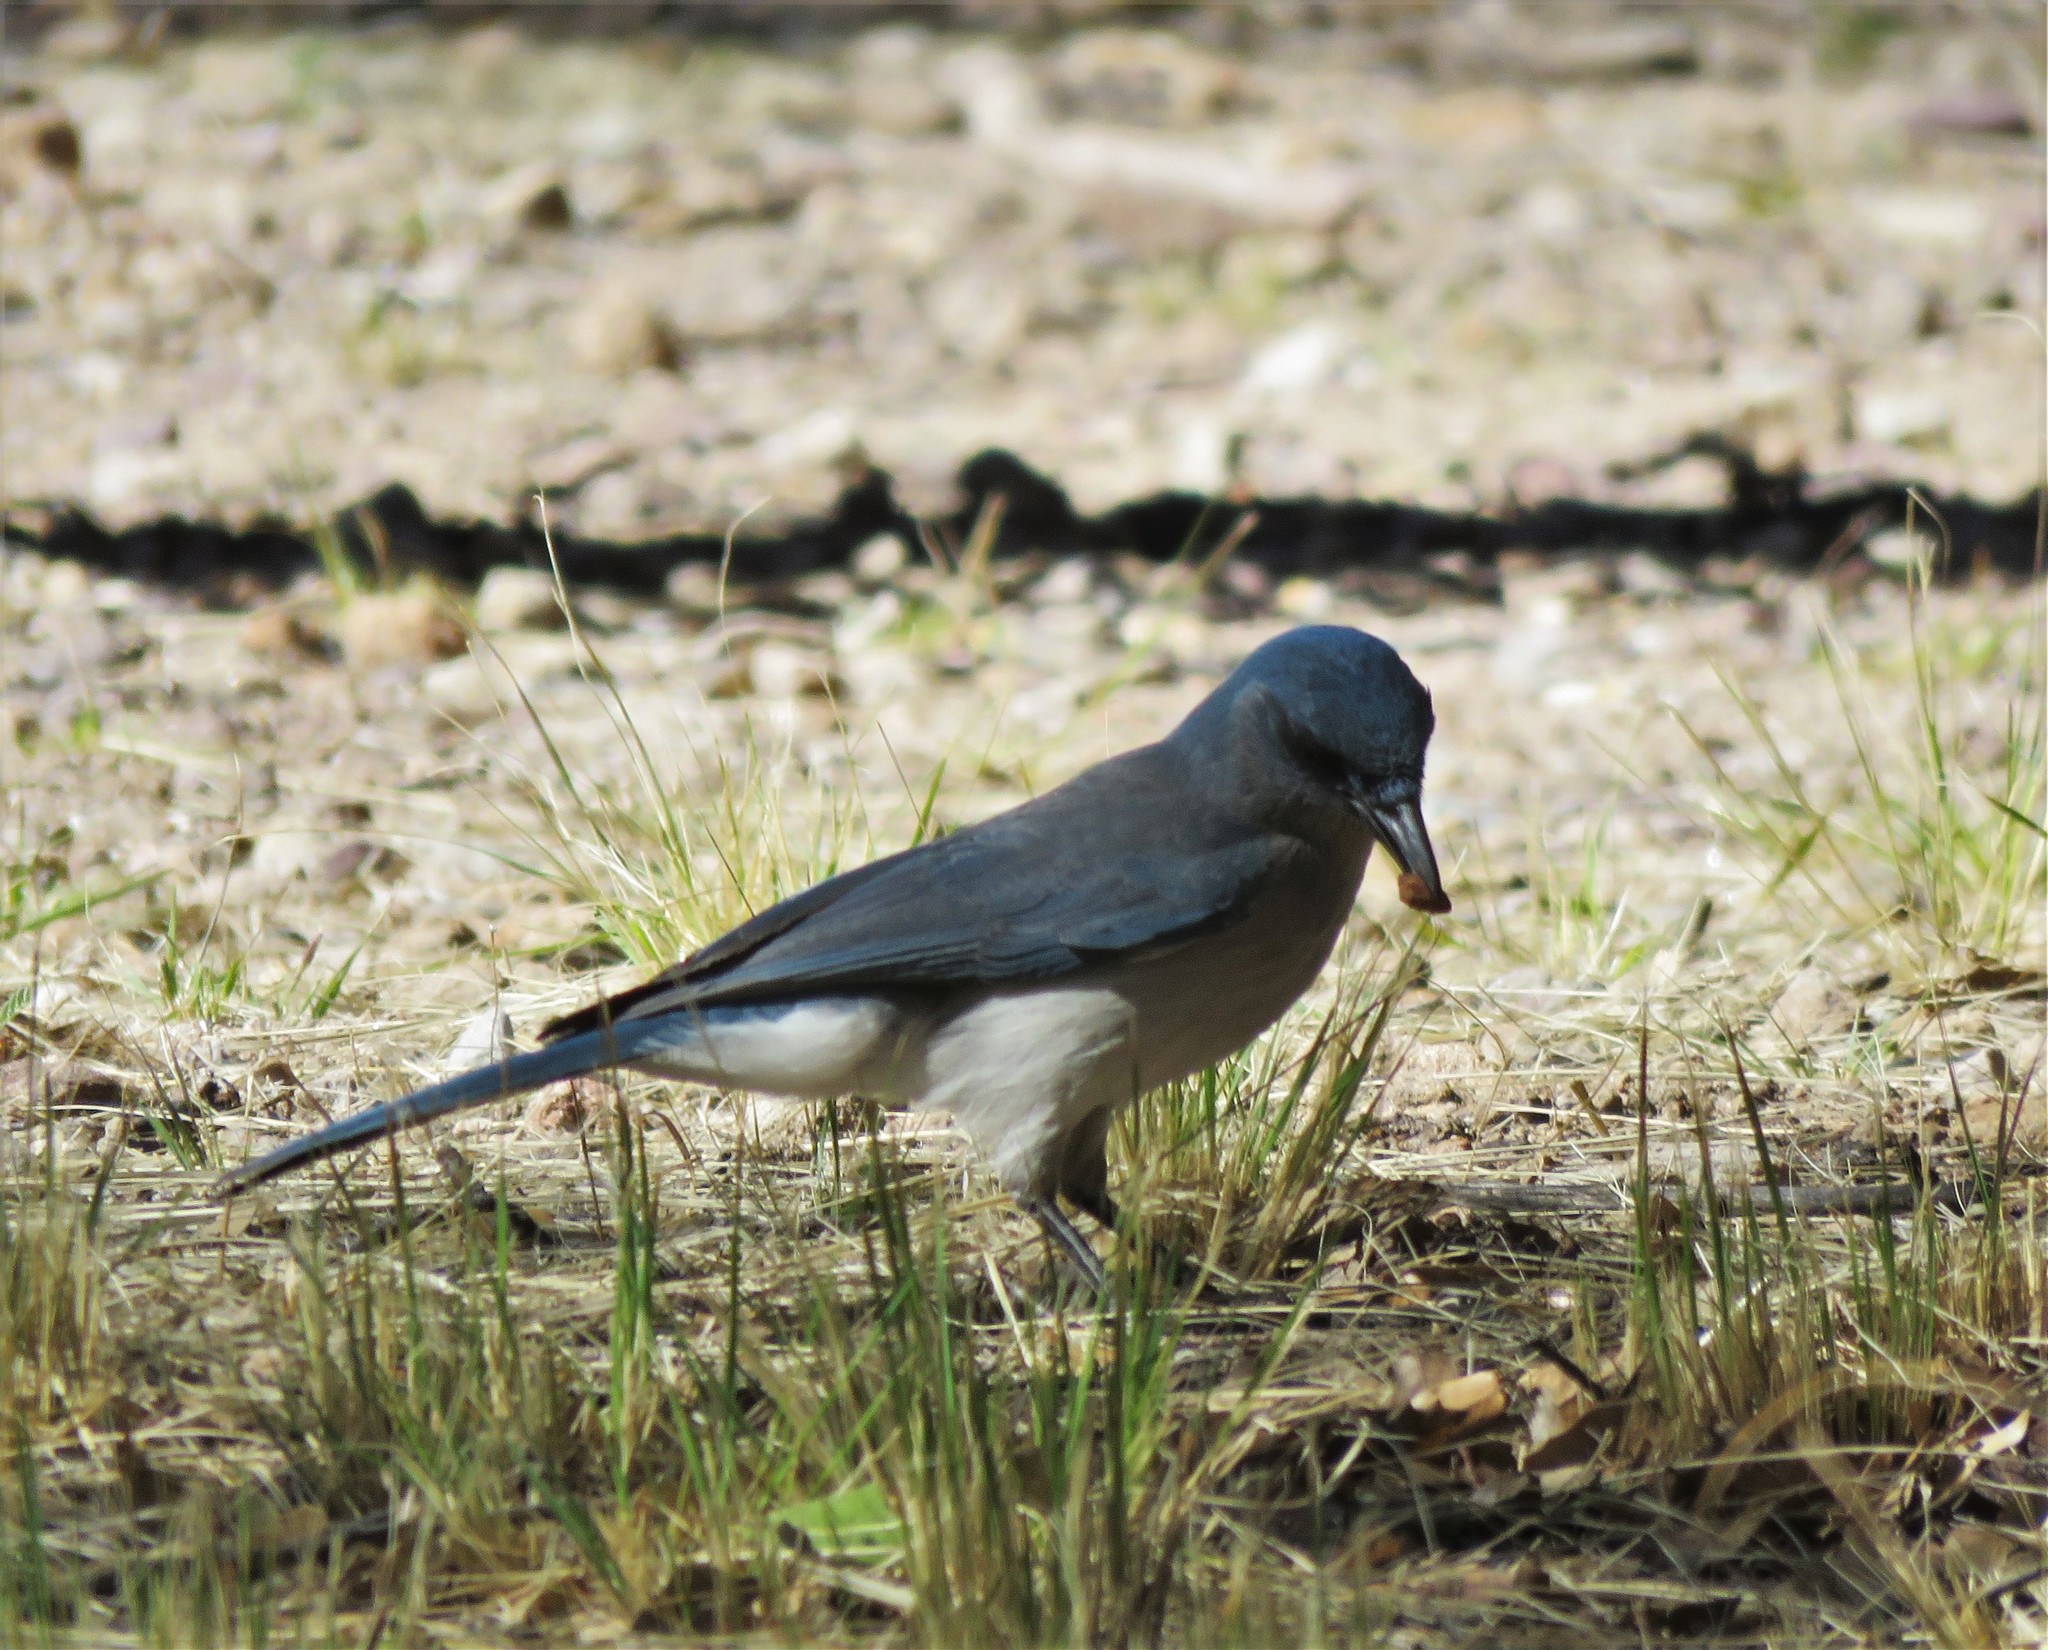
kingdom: Animalia
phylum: Chordata
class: Aves
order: Passeriformes
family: Corvidae
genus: Aphelocoma
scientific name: Aphelocoma wollweberi
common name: Mexican jay
